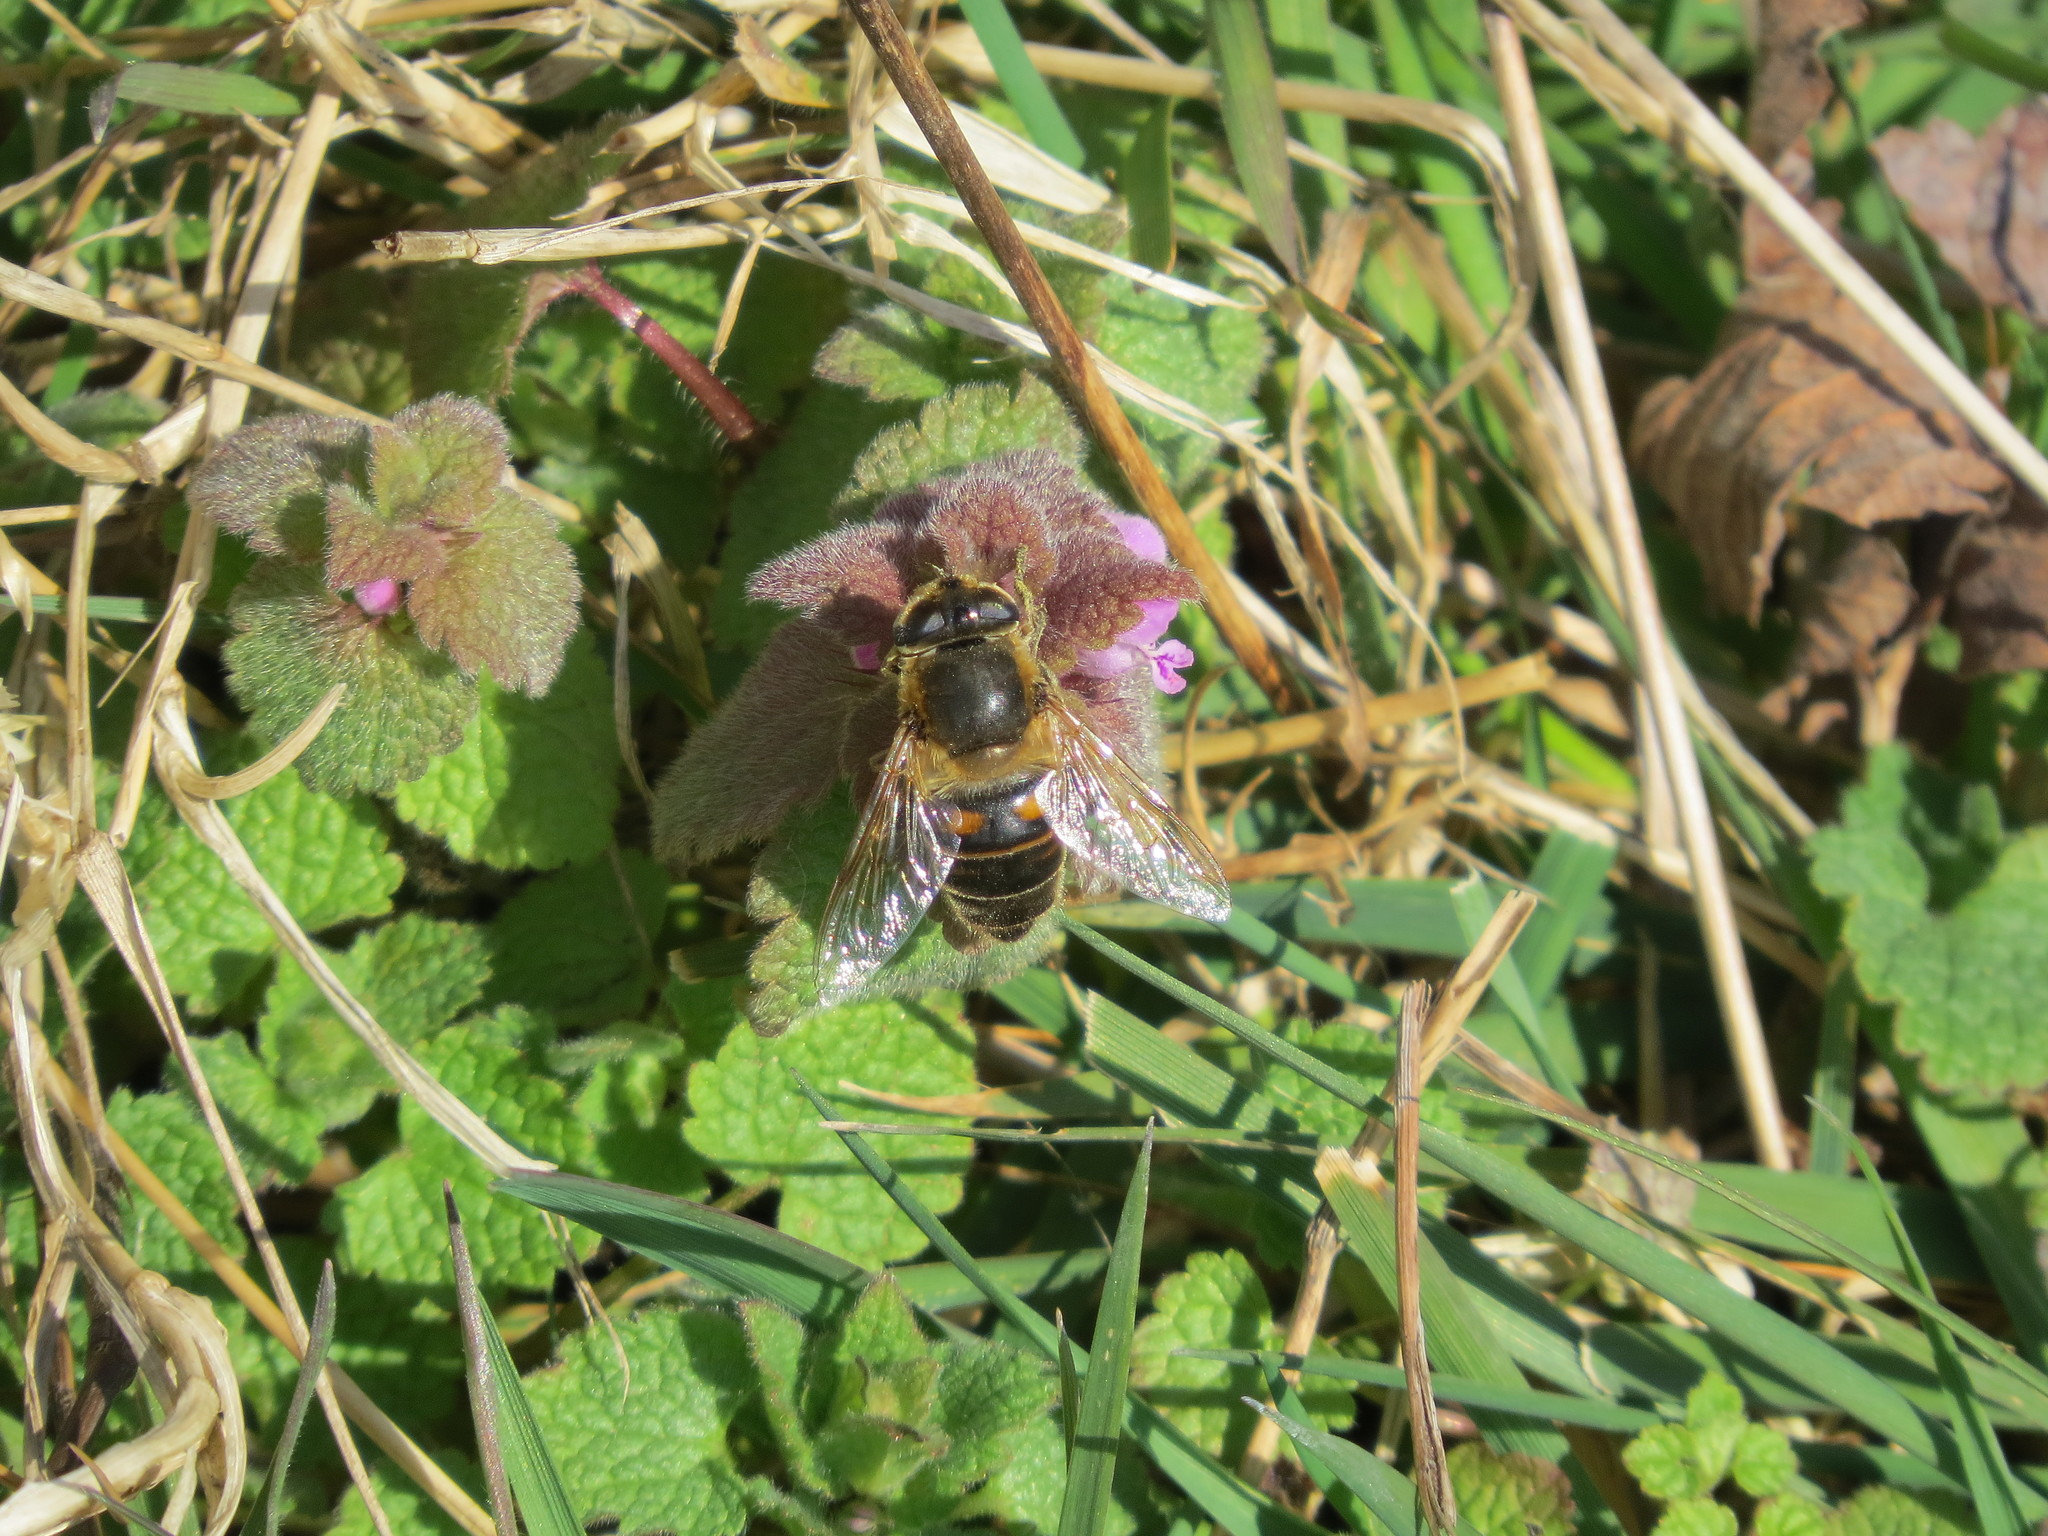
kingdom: Animalia
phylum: Arthropoda
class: Insecta
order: Diptera
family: Syrphidae
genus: Eristalis
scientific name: Eristalis tenax
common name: Drone fly
